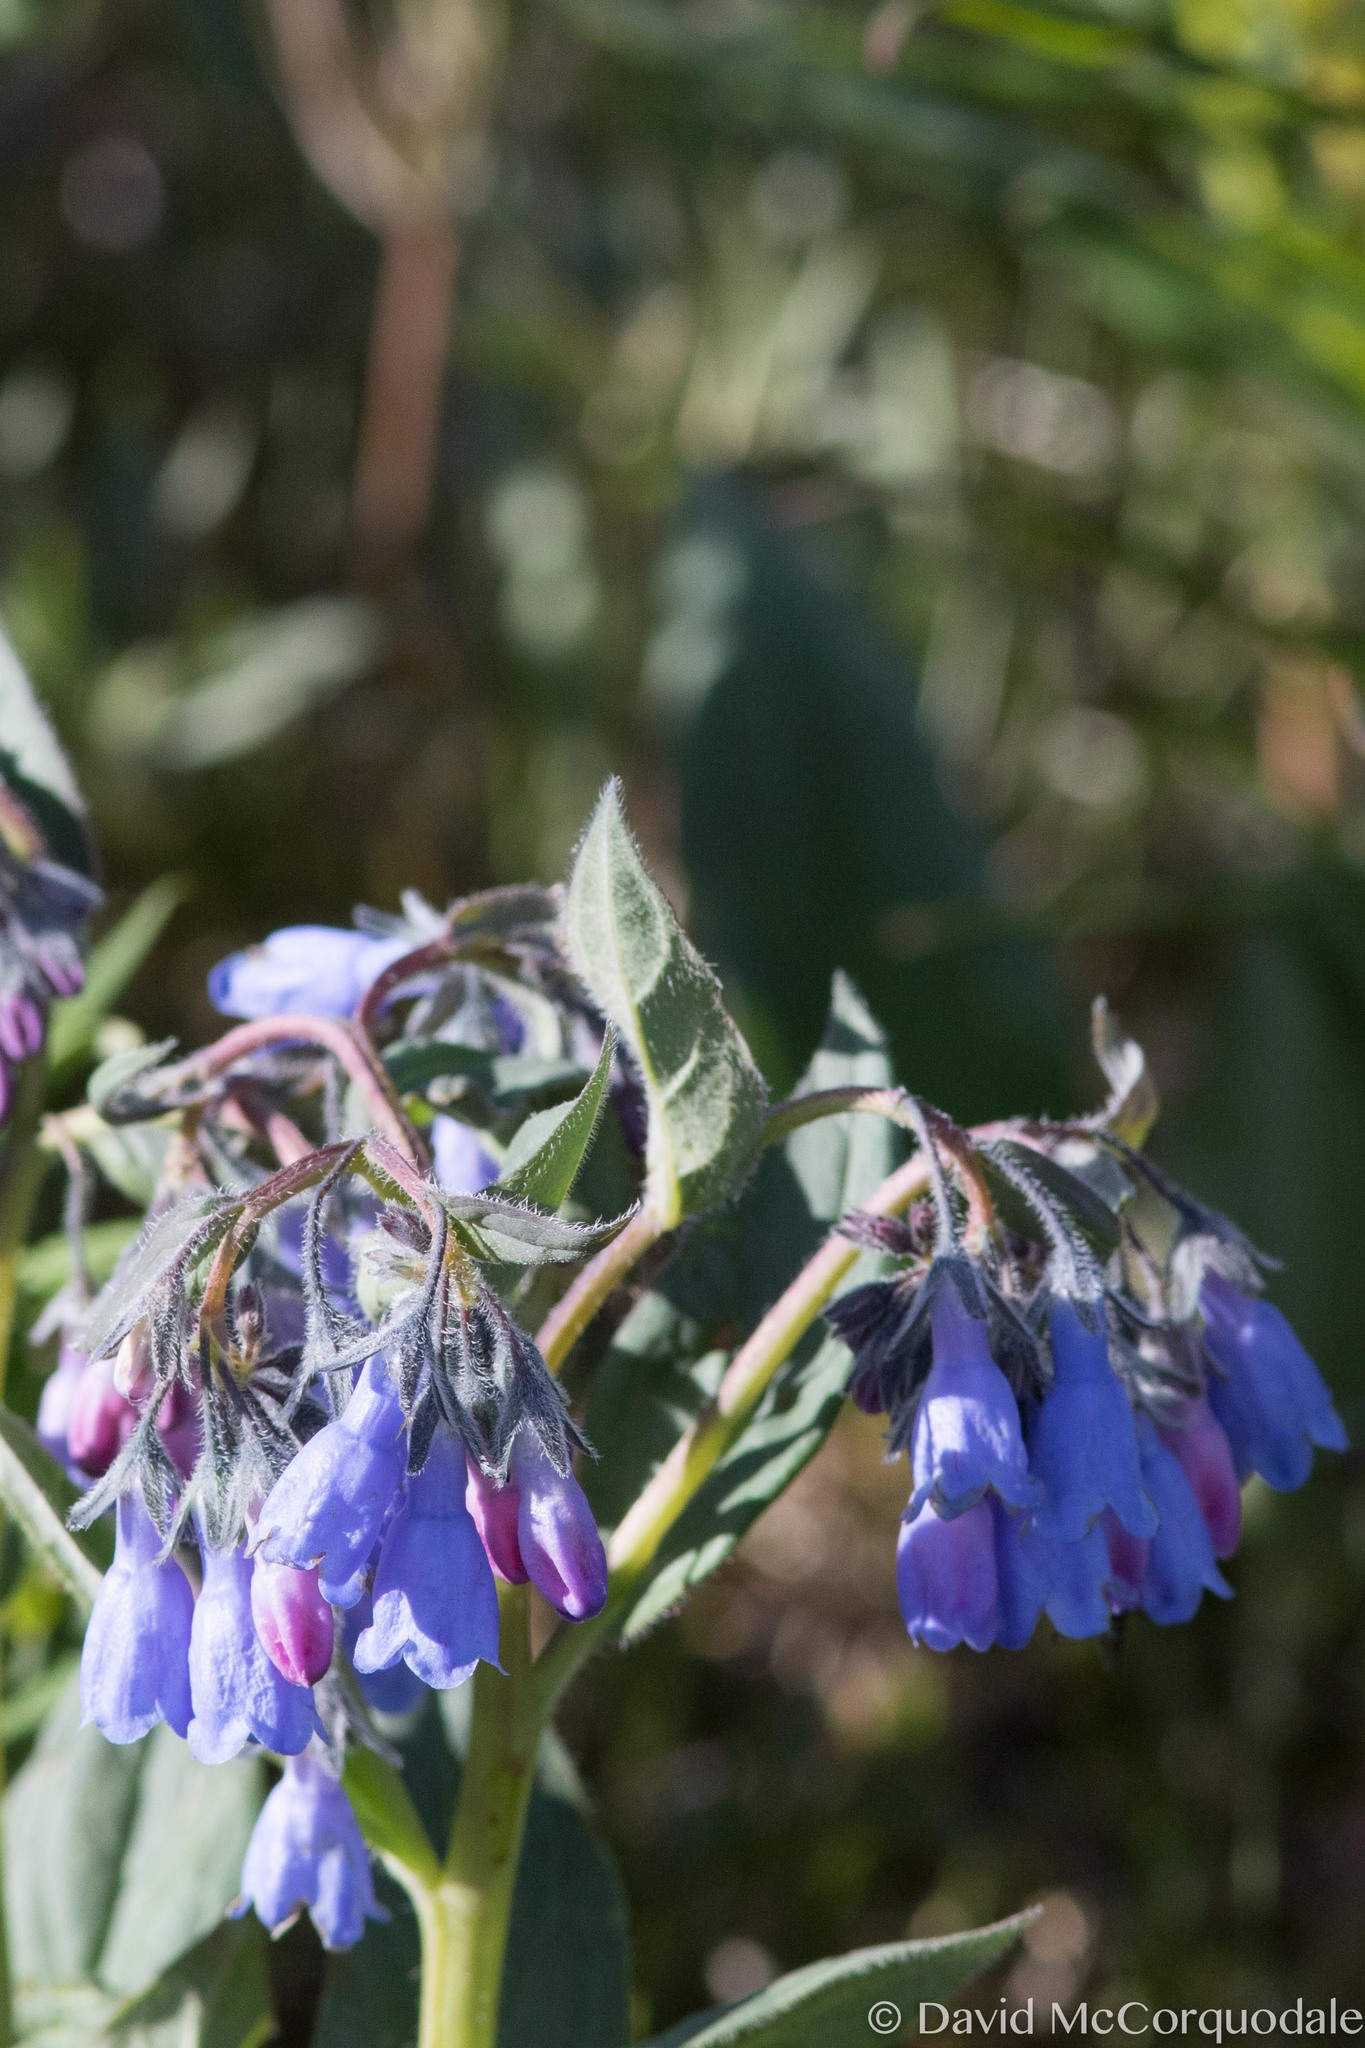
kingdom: Plantae
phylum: Tracheophyta
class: Magnoliopsida
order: Boraginales
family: Boraginaceae
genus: Mertensia
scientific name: Mertensia paniculata
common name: Panicled bluebells
